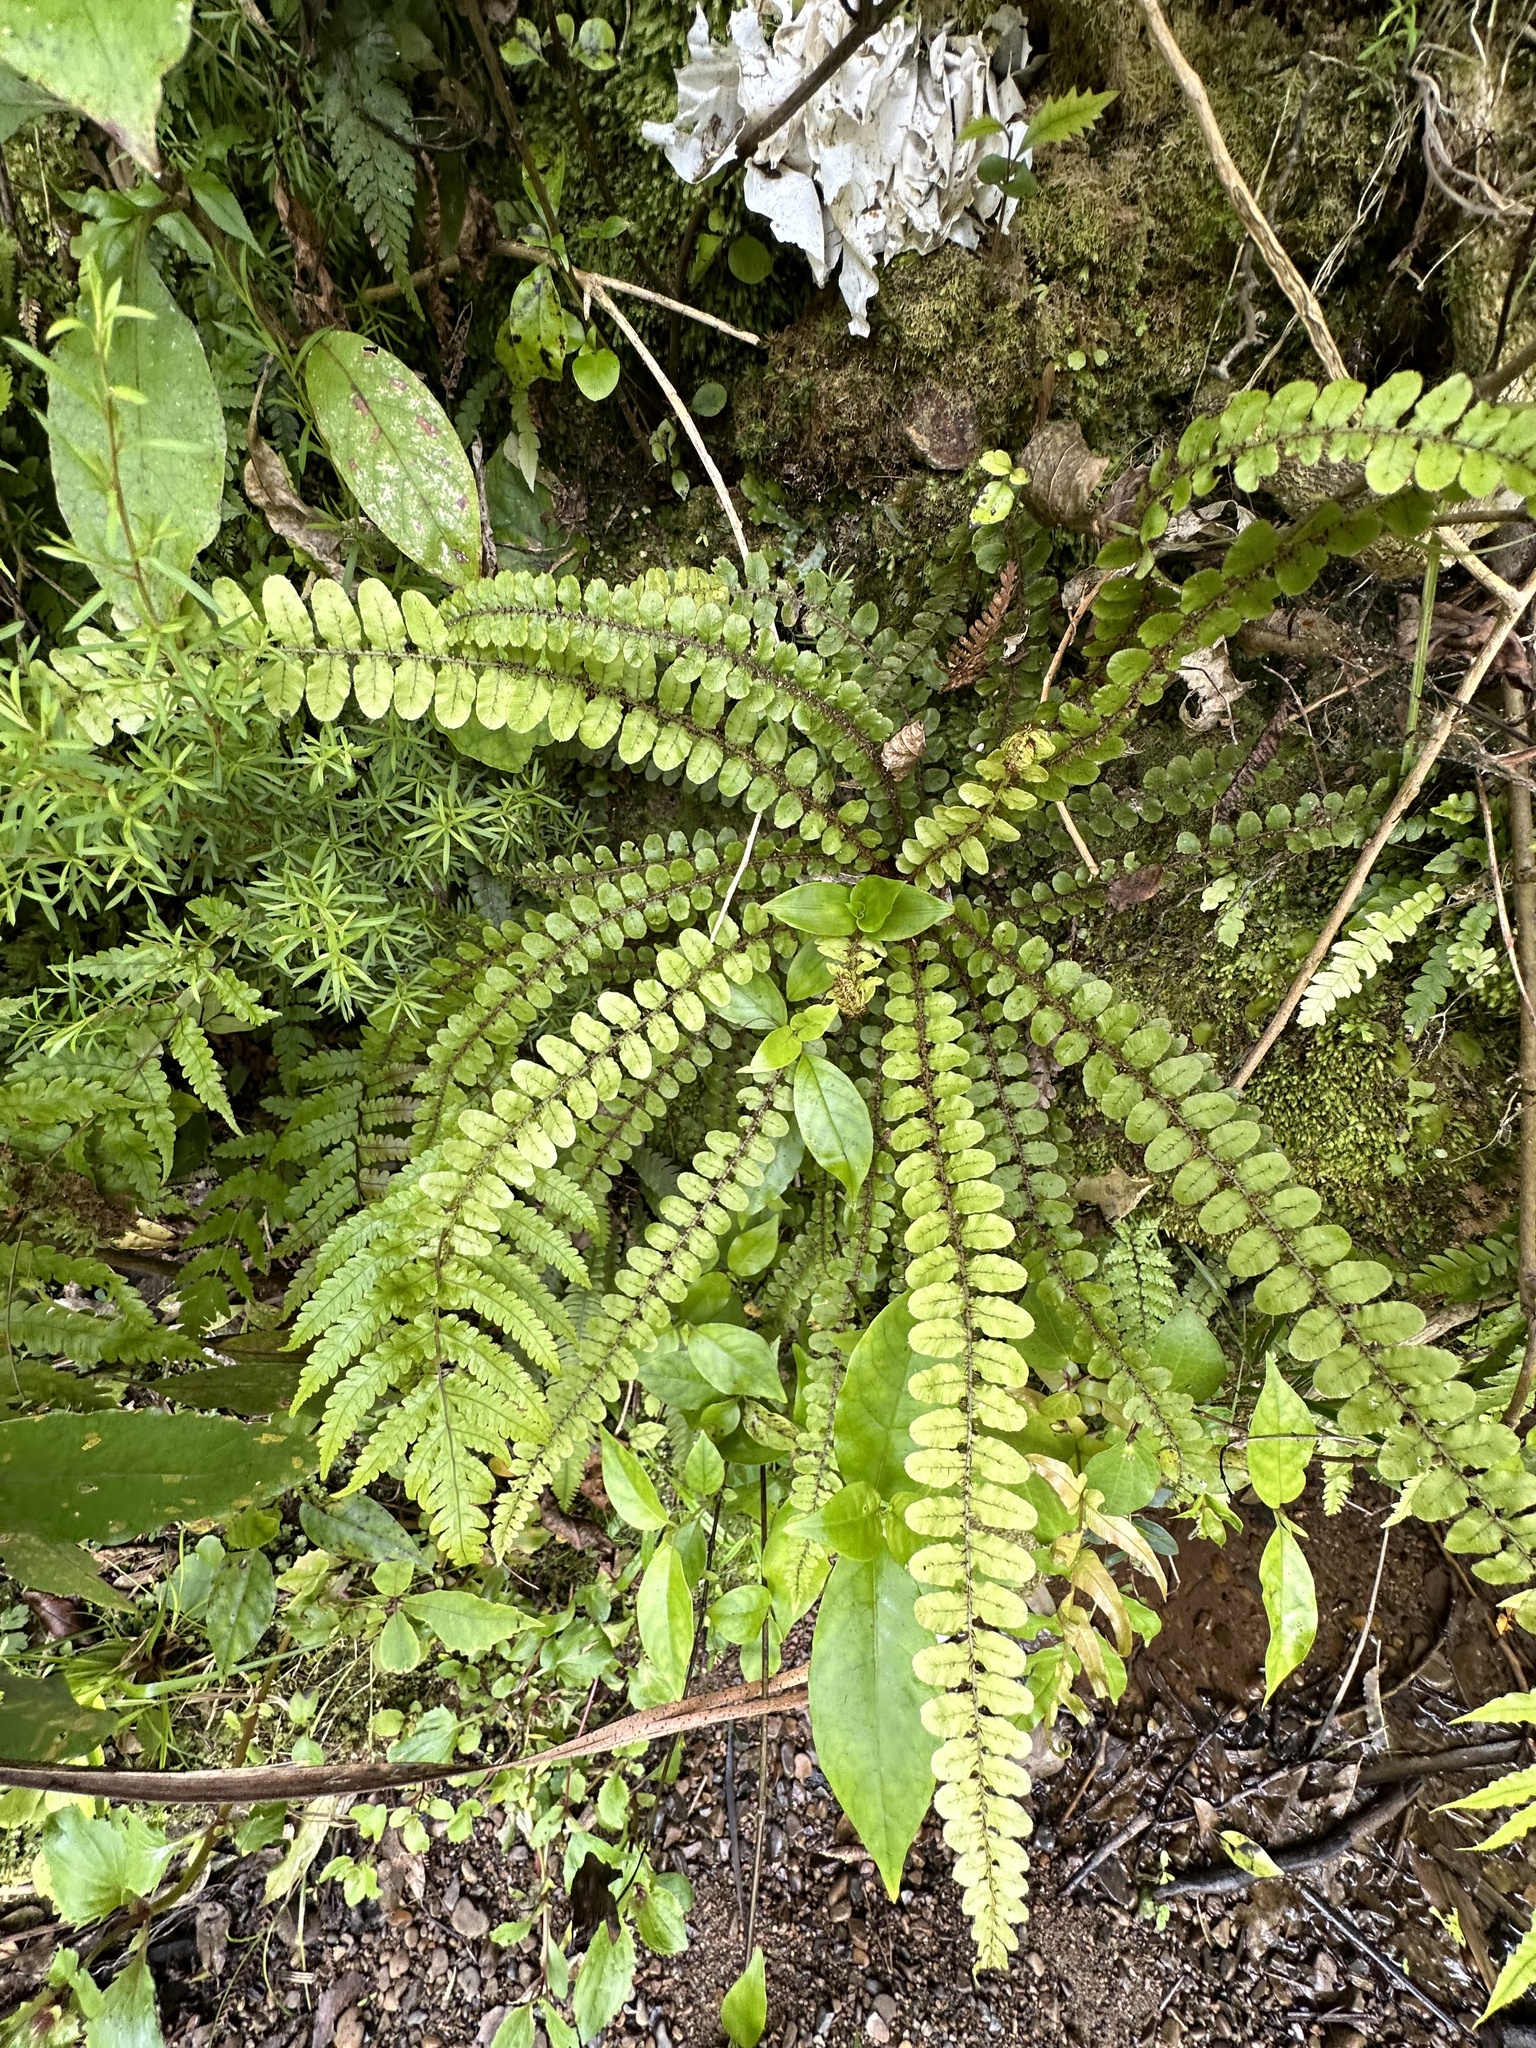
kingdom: Plantae
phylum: Tracheophyta
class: Polypodiopsida
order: Polypodiales
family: Blechnaceae
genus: Cranfillia
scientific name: Cranfillia fluviatilis
